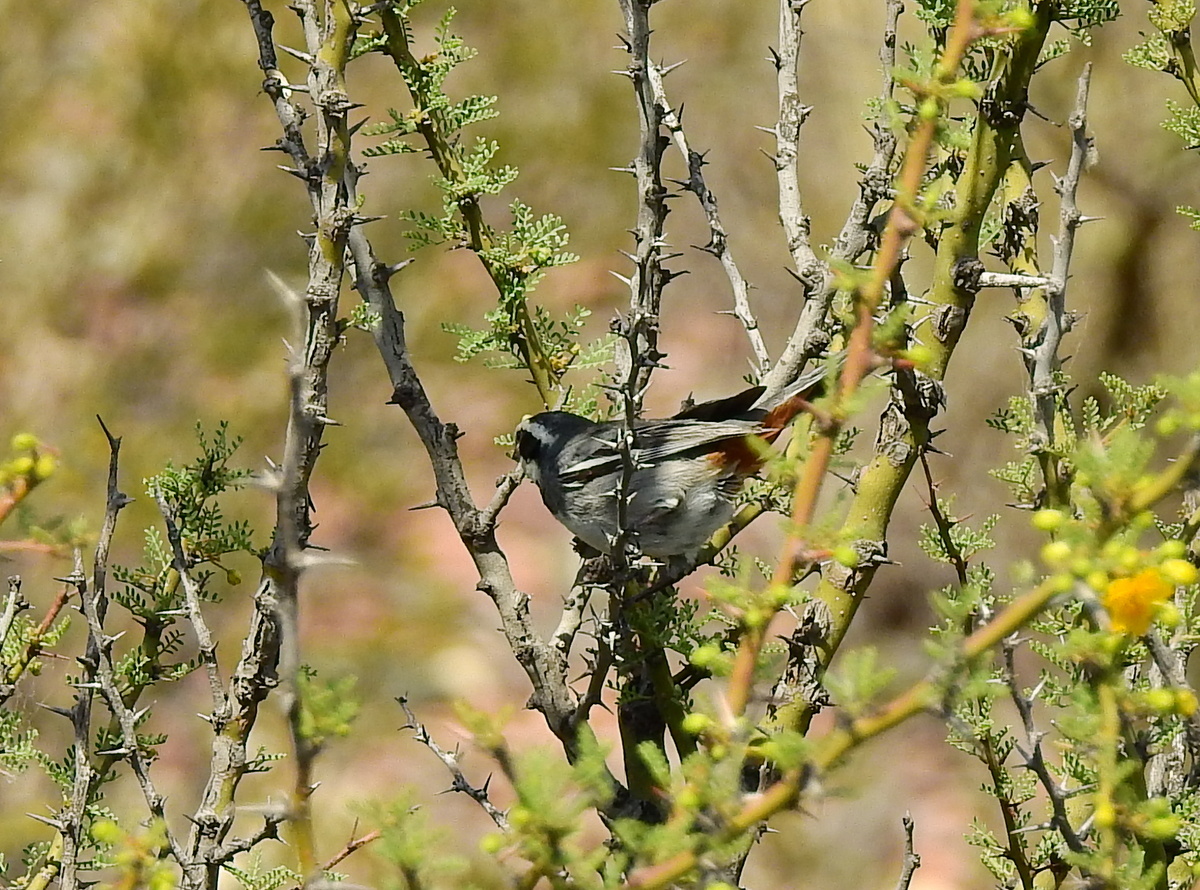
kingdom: Animalia
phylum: Chordata
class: Aves
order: Passeriformes
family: Thraupidae
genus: Microspingus
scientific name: Microspingus torquatus
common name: Ringed warbling-finch
